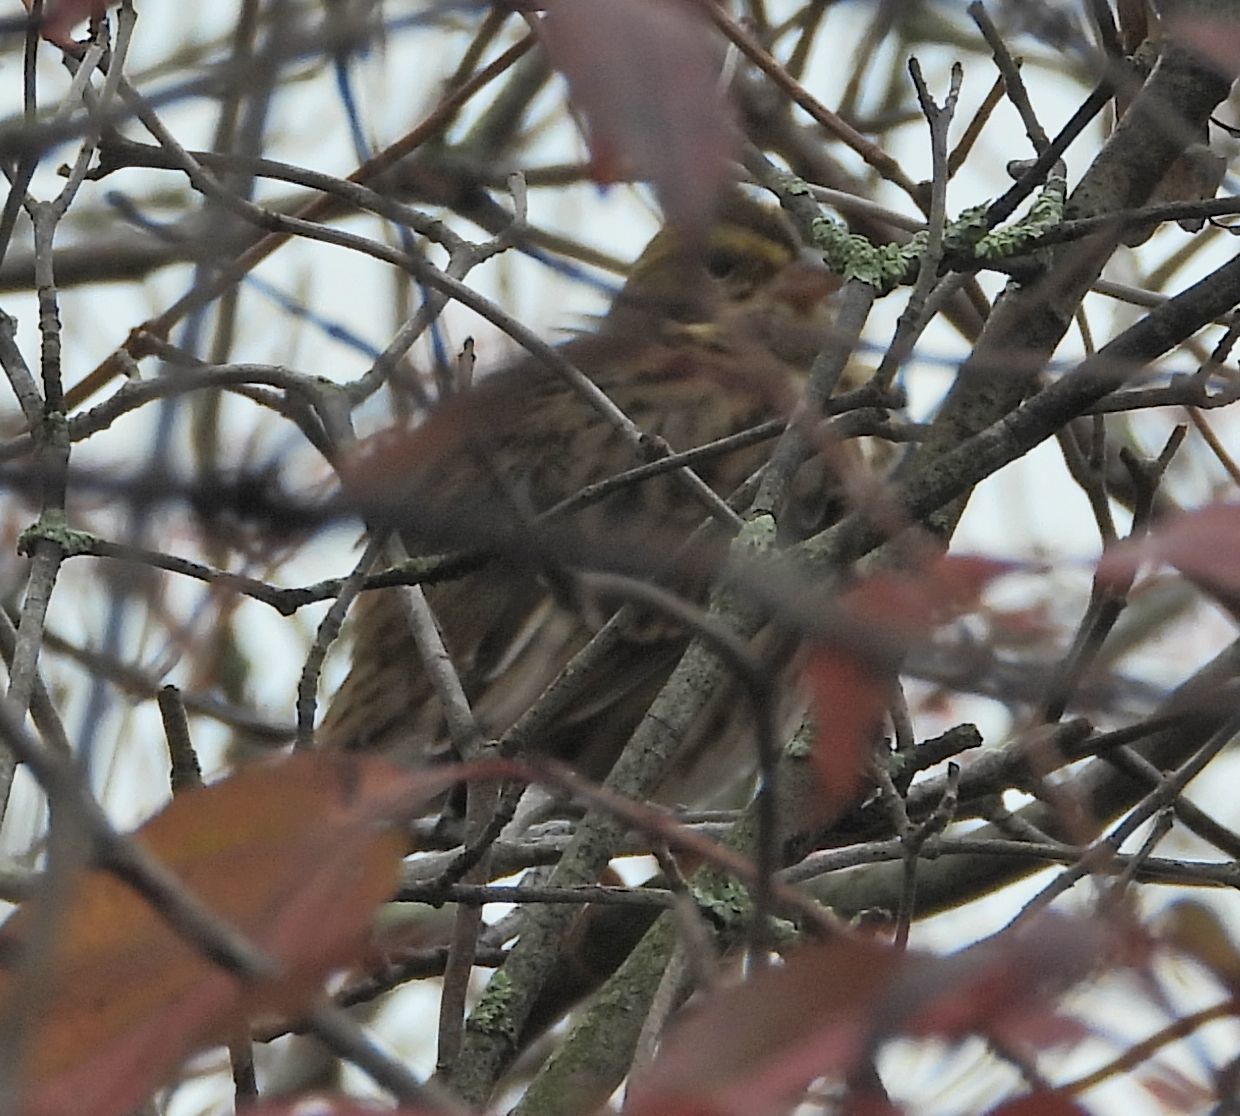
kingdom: Animalia
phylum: Chordata
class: Aves
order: Passeriformes
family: Passerellidae
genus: Passerculus
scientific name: Passerculus sandwichensis
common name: Savannah sparrow
